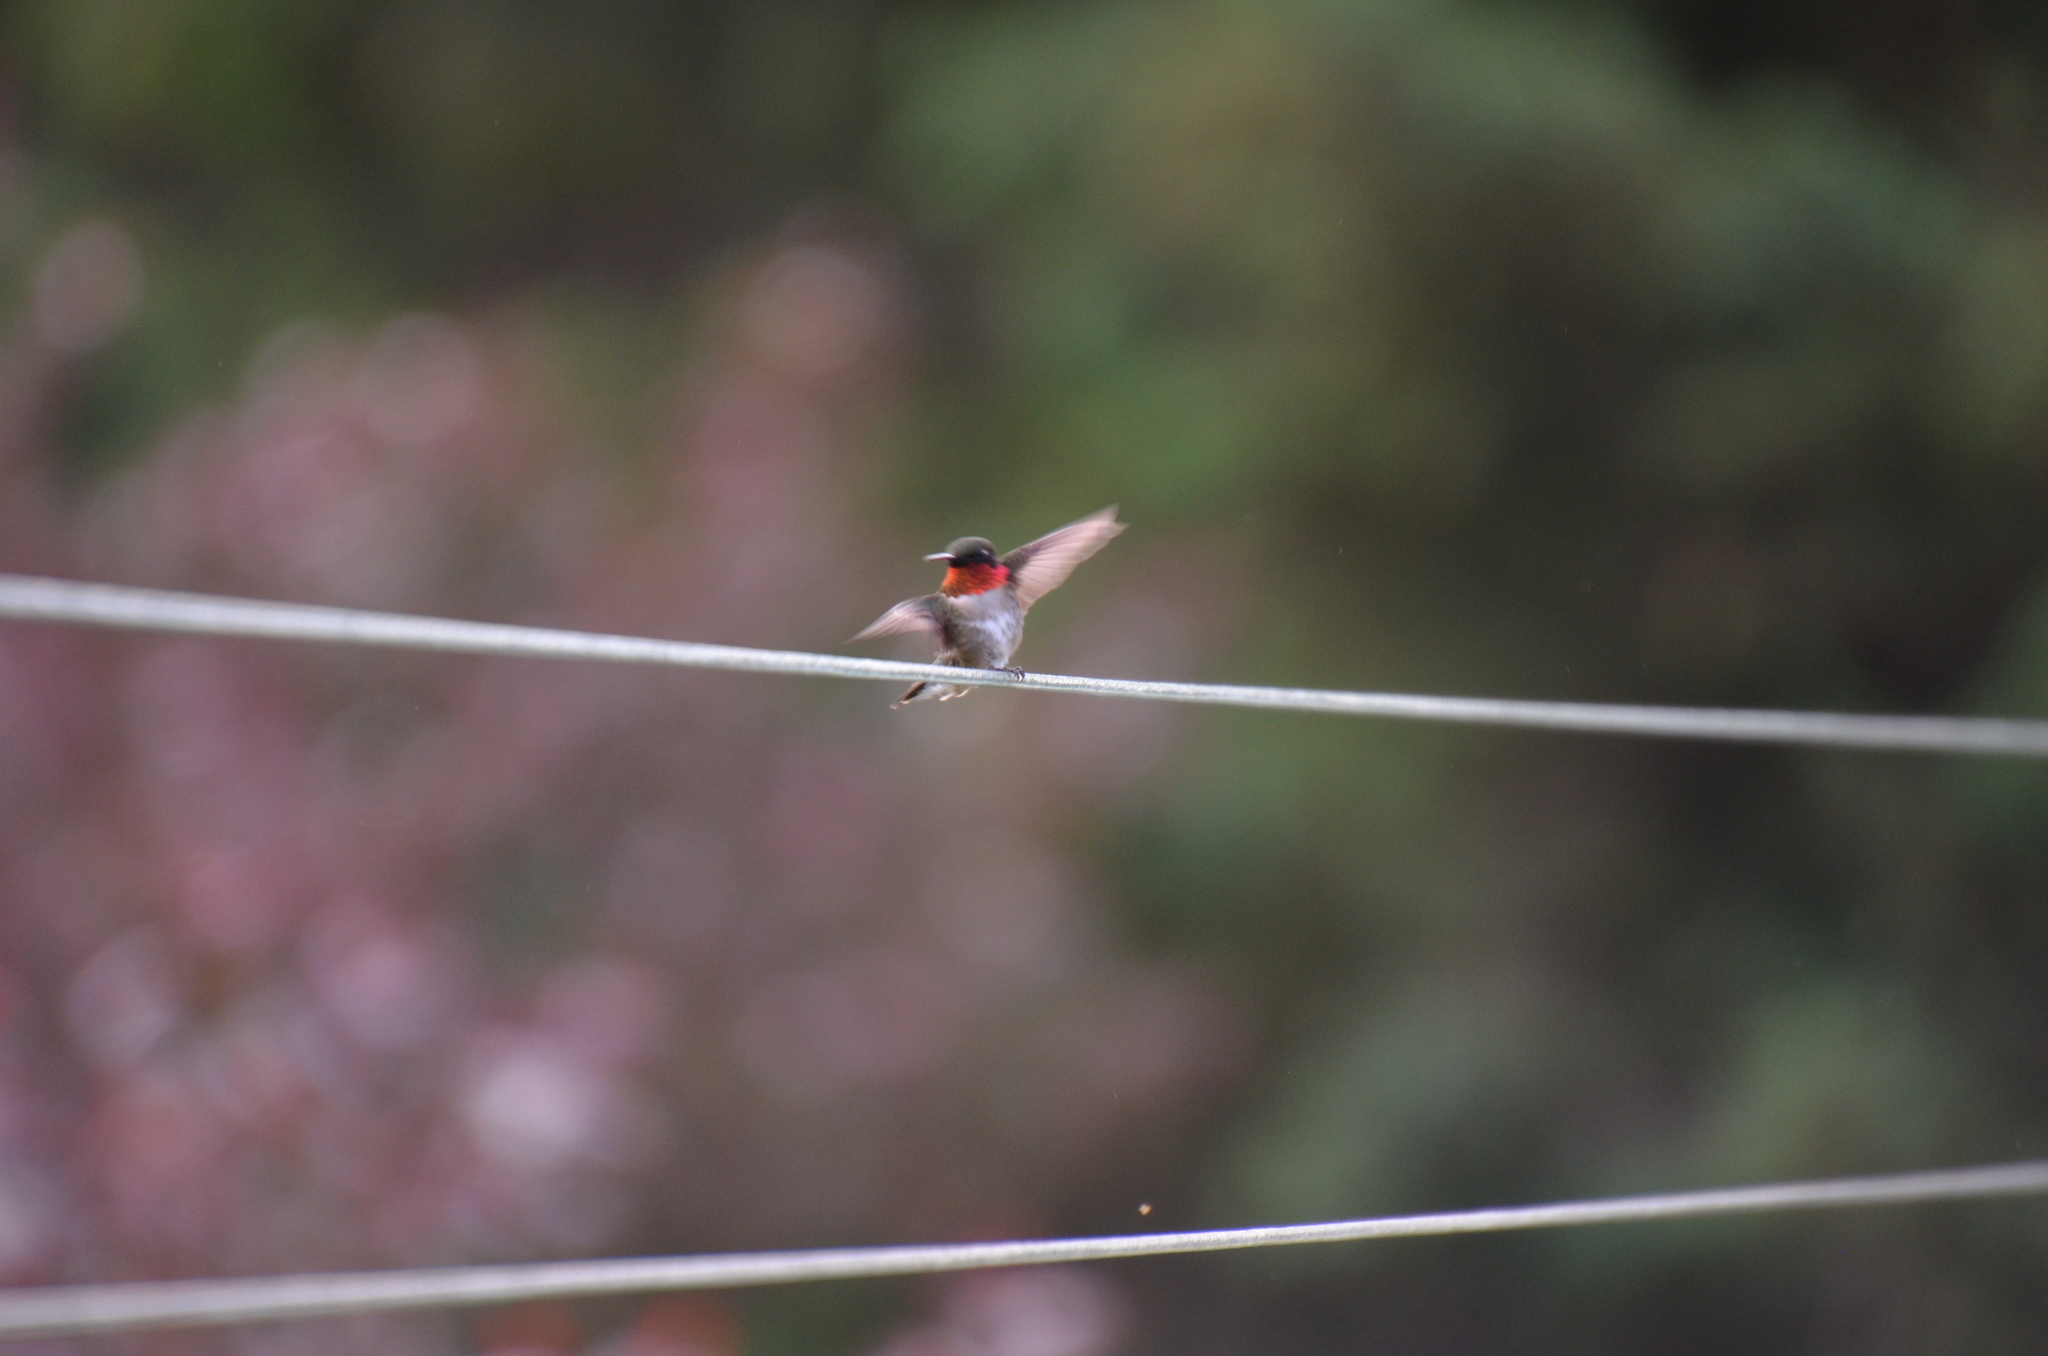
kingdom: Animalia
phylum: Chordata
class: Aves
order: Apodiformes
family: Trochilidae
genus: Archilochus
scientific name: Archilochus colubris
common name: Ruby-throated hummingbird
